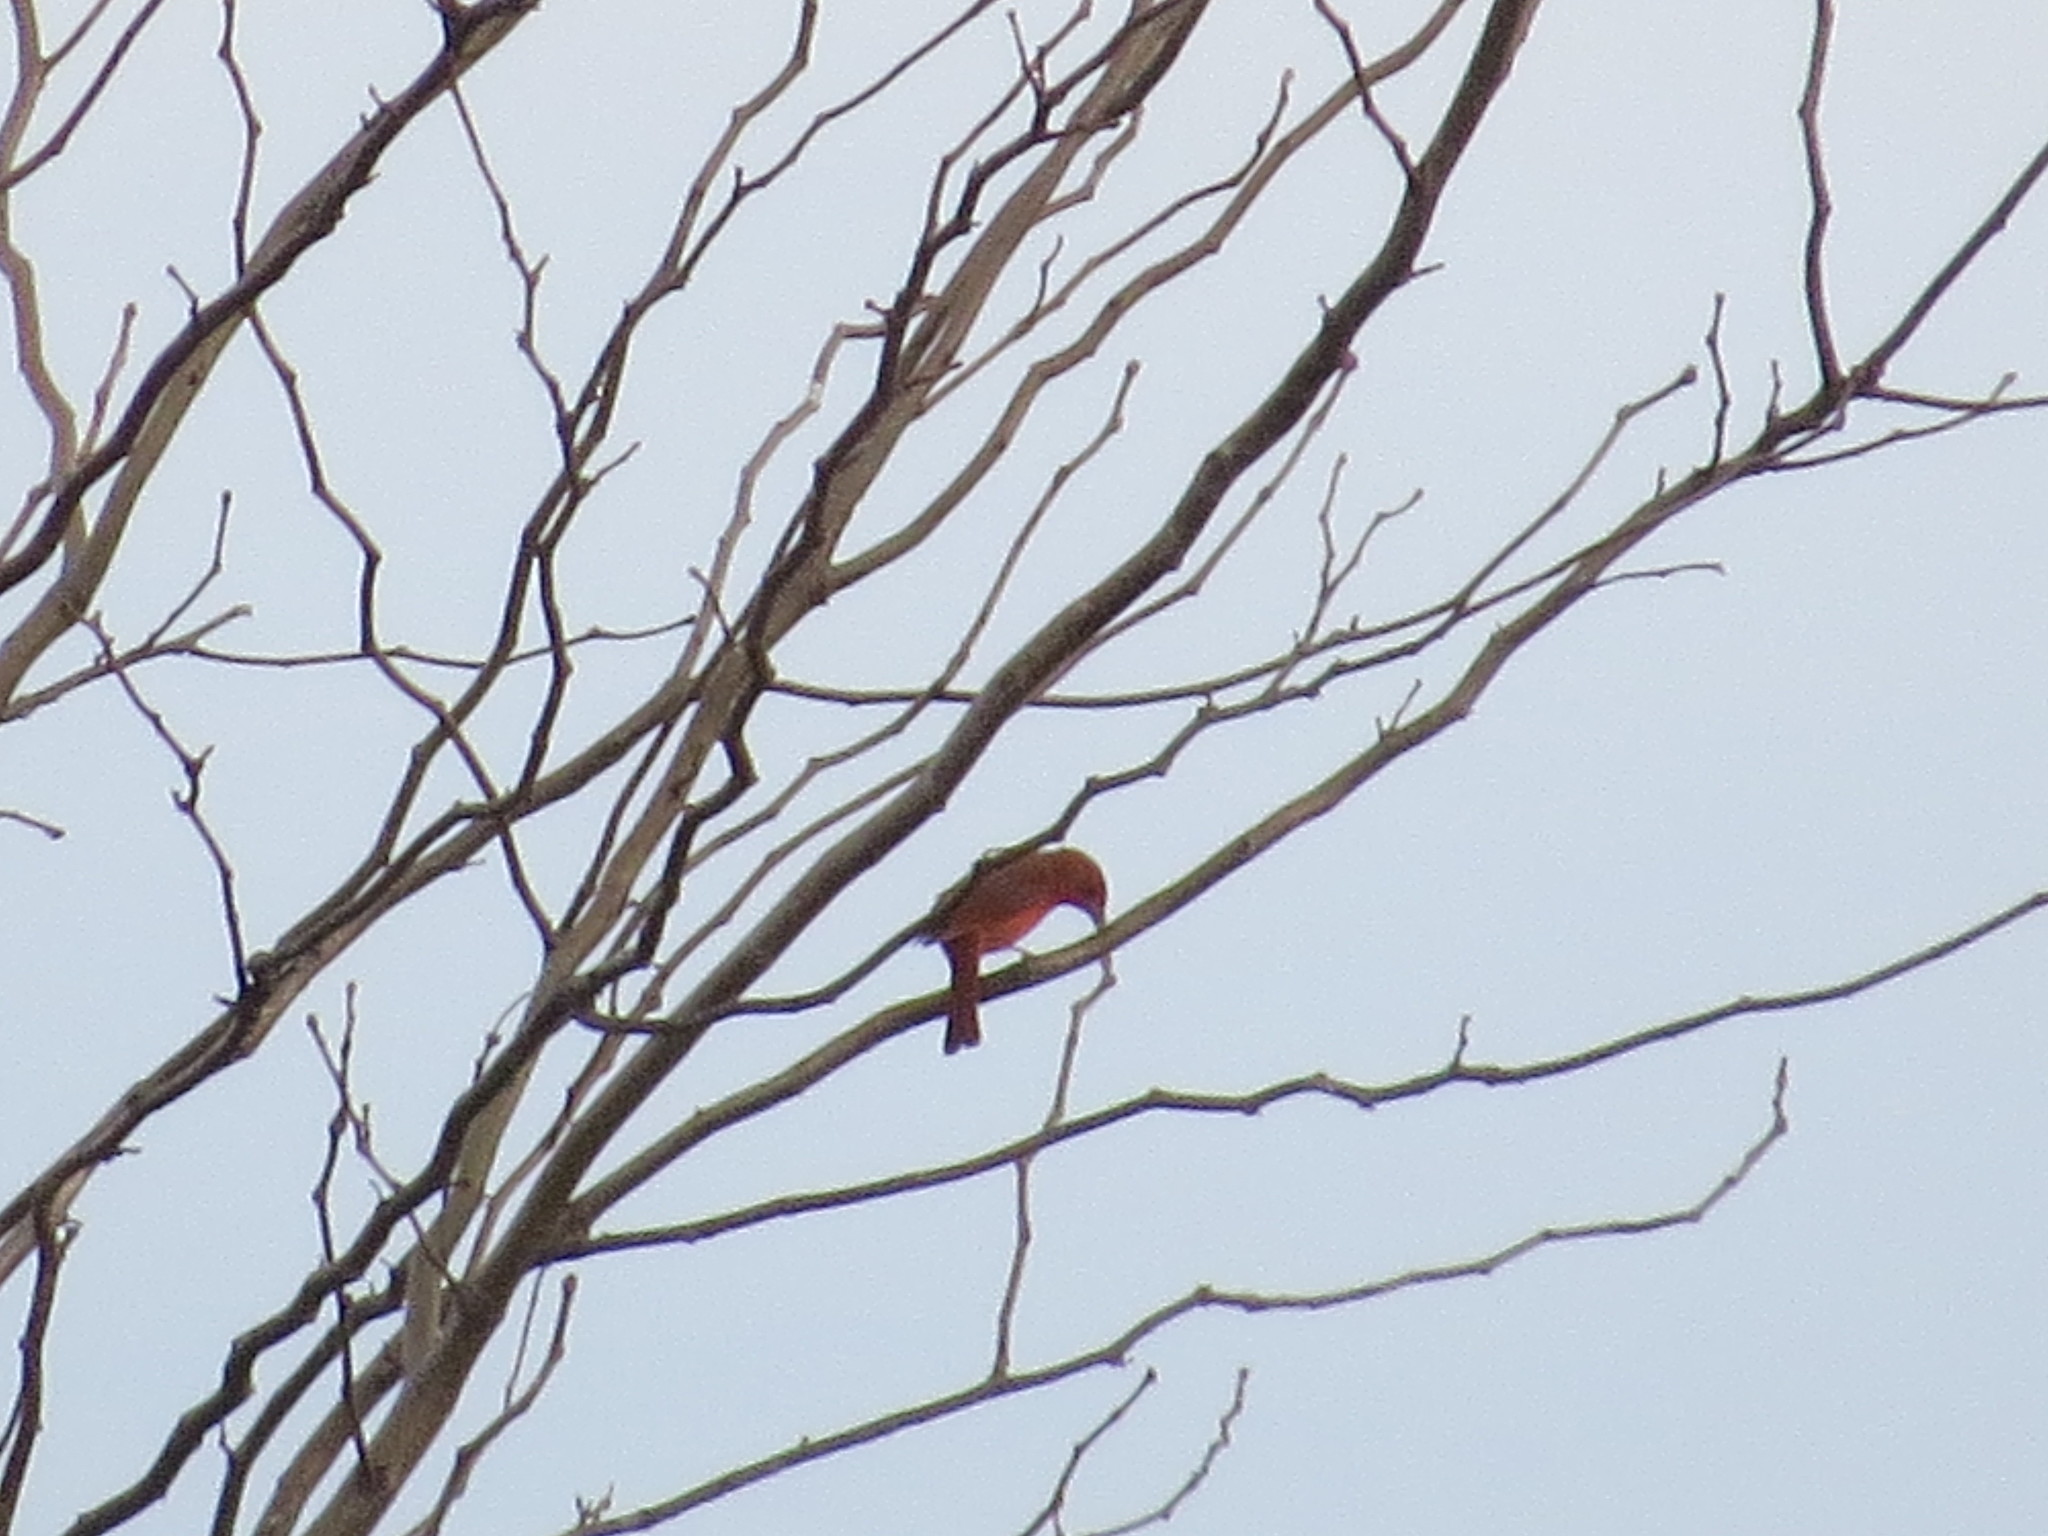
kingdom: Animalia
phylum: Chordata
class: Aves
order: Passeriformes
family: Cardinalidae
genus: Piranga
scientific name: Piranga flava
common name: Red tanager
